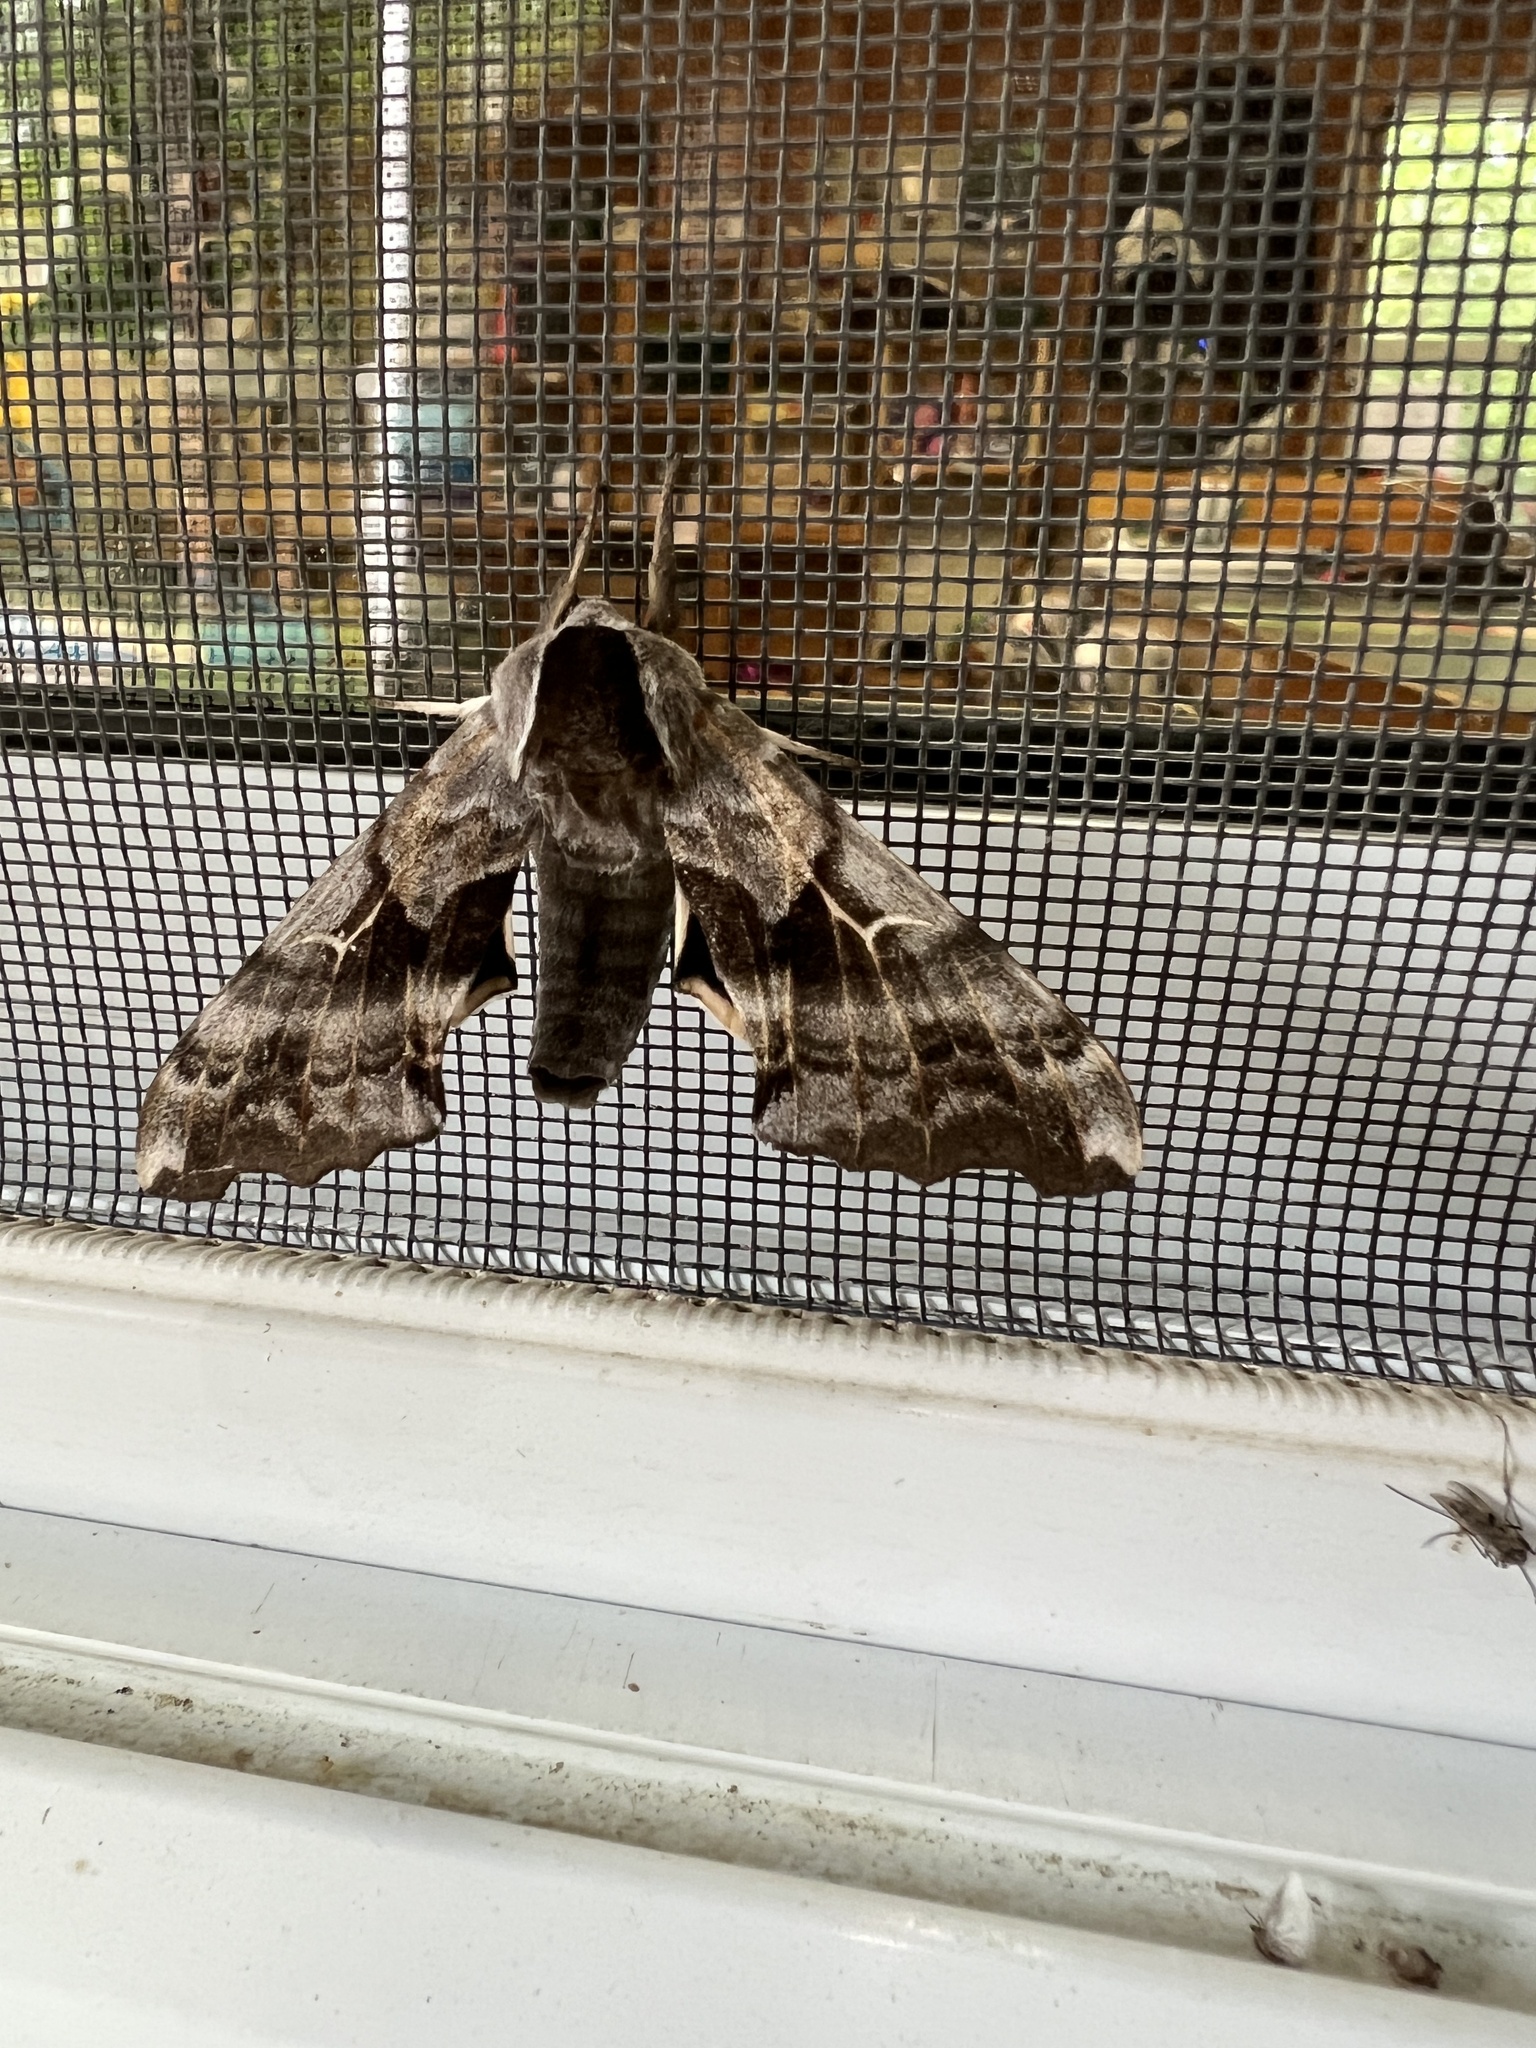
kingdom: Animalia
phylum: Arthropoda
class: Insecta
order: Lepidoptera
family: Sphingidae
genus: Smerinthus
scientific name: Smerinthus cerisyi
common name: Cerisy's sphinx moth
